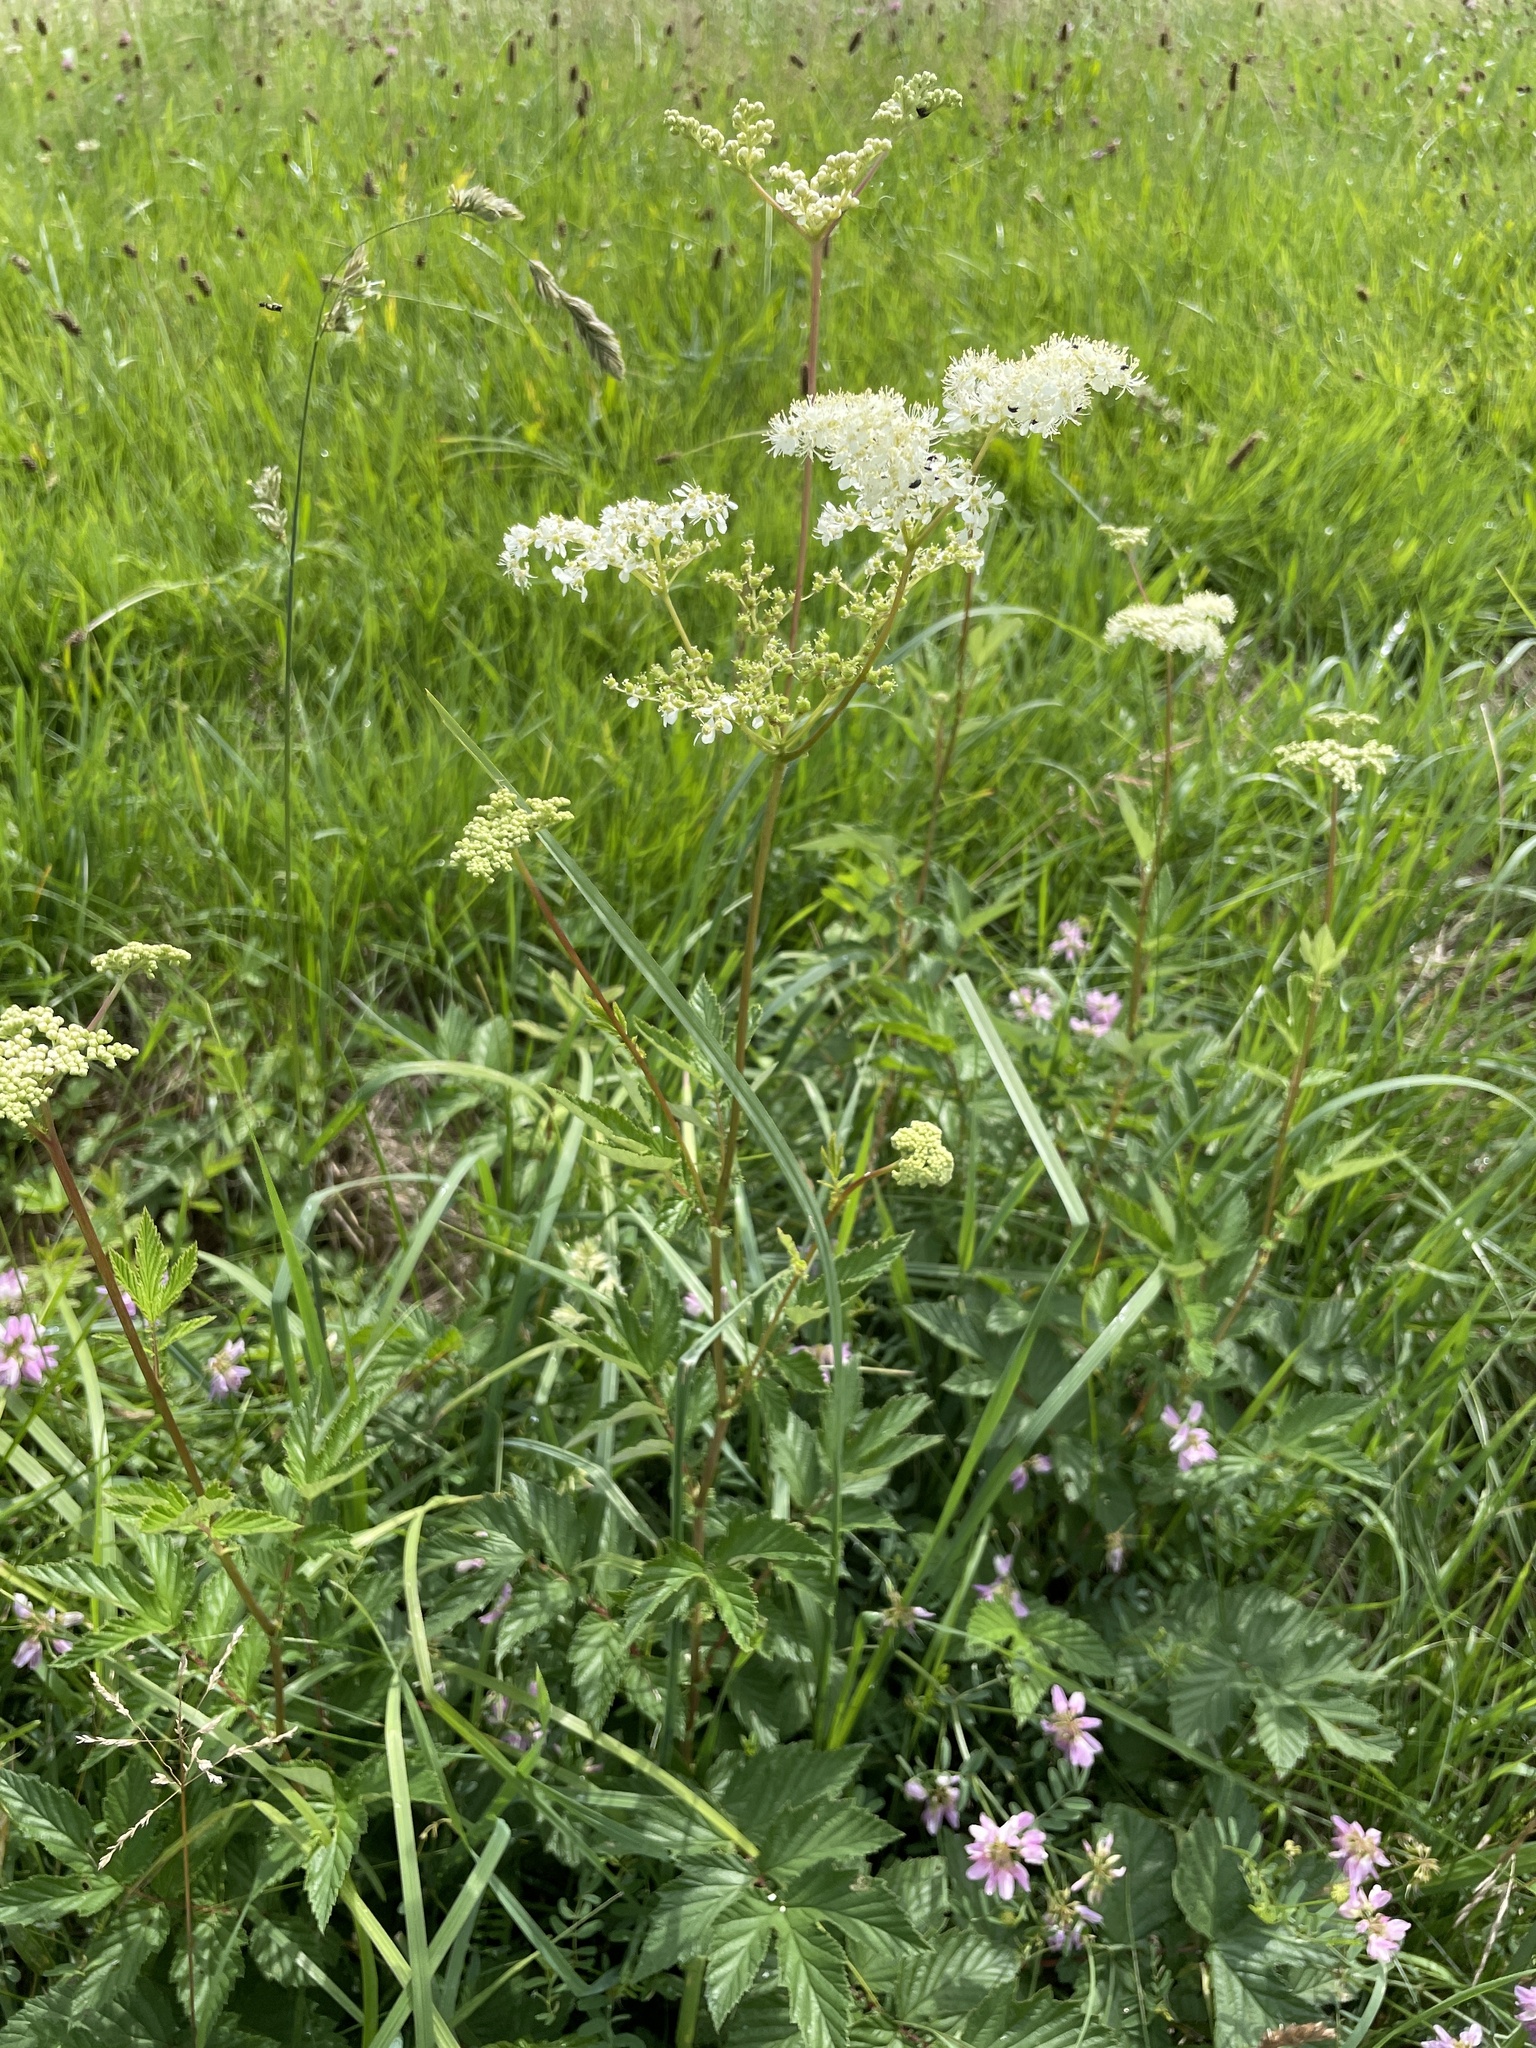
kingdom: Plantae
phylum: Tracheophyta
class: Magnoliopsida
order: Rosales
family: Rosaceae
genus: Filipendula
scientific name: Filipendula ulmaria
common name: Meadowsweet
